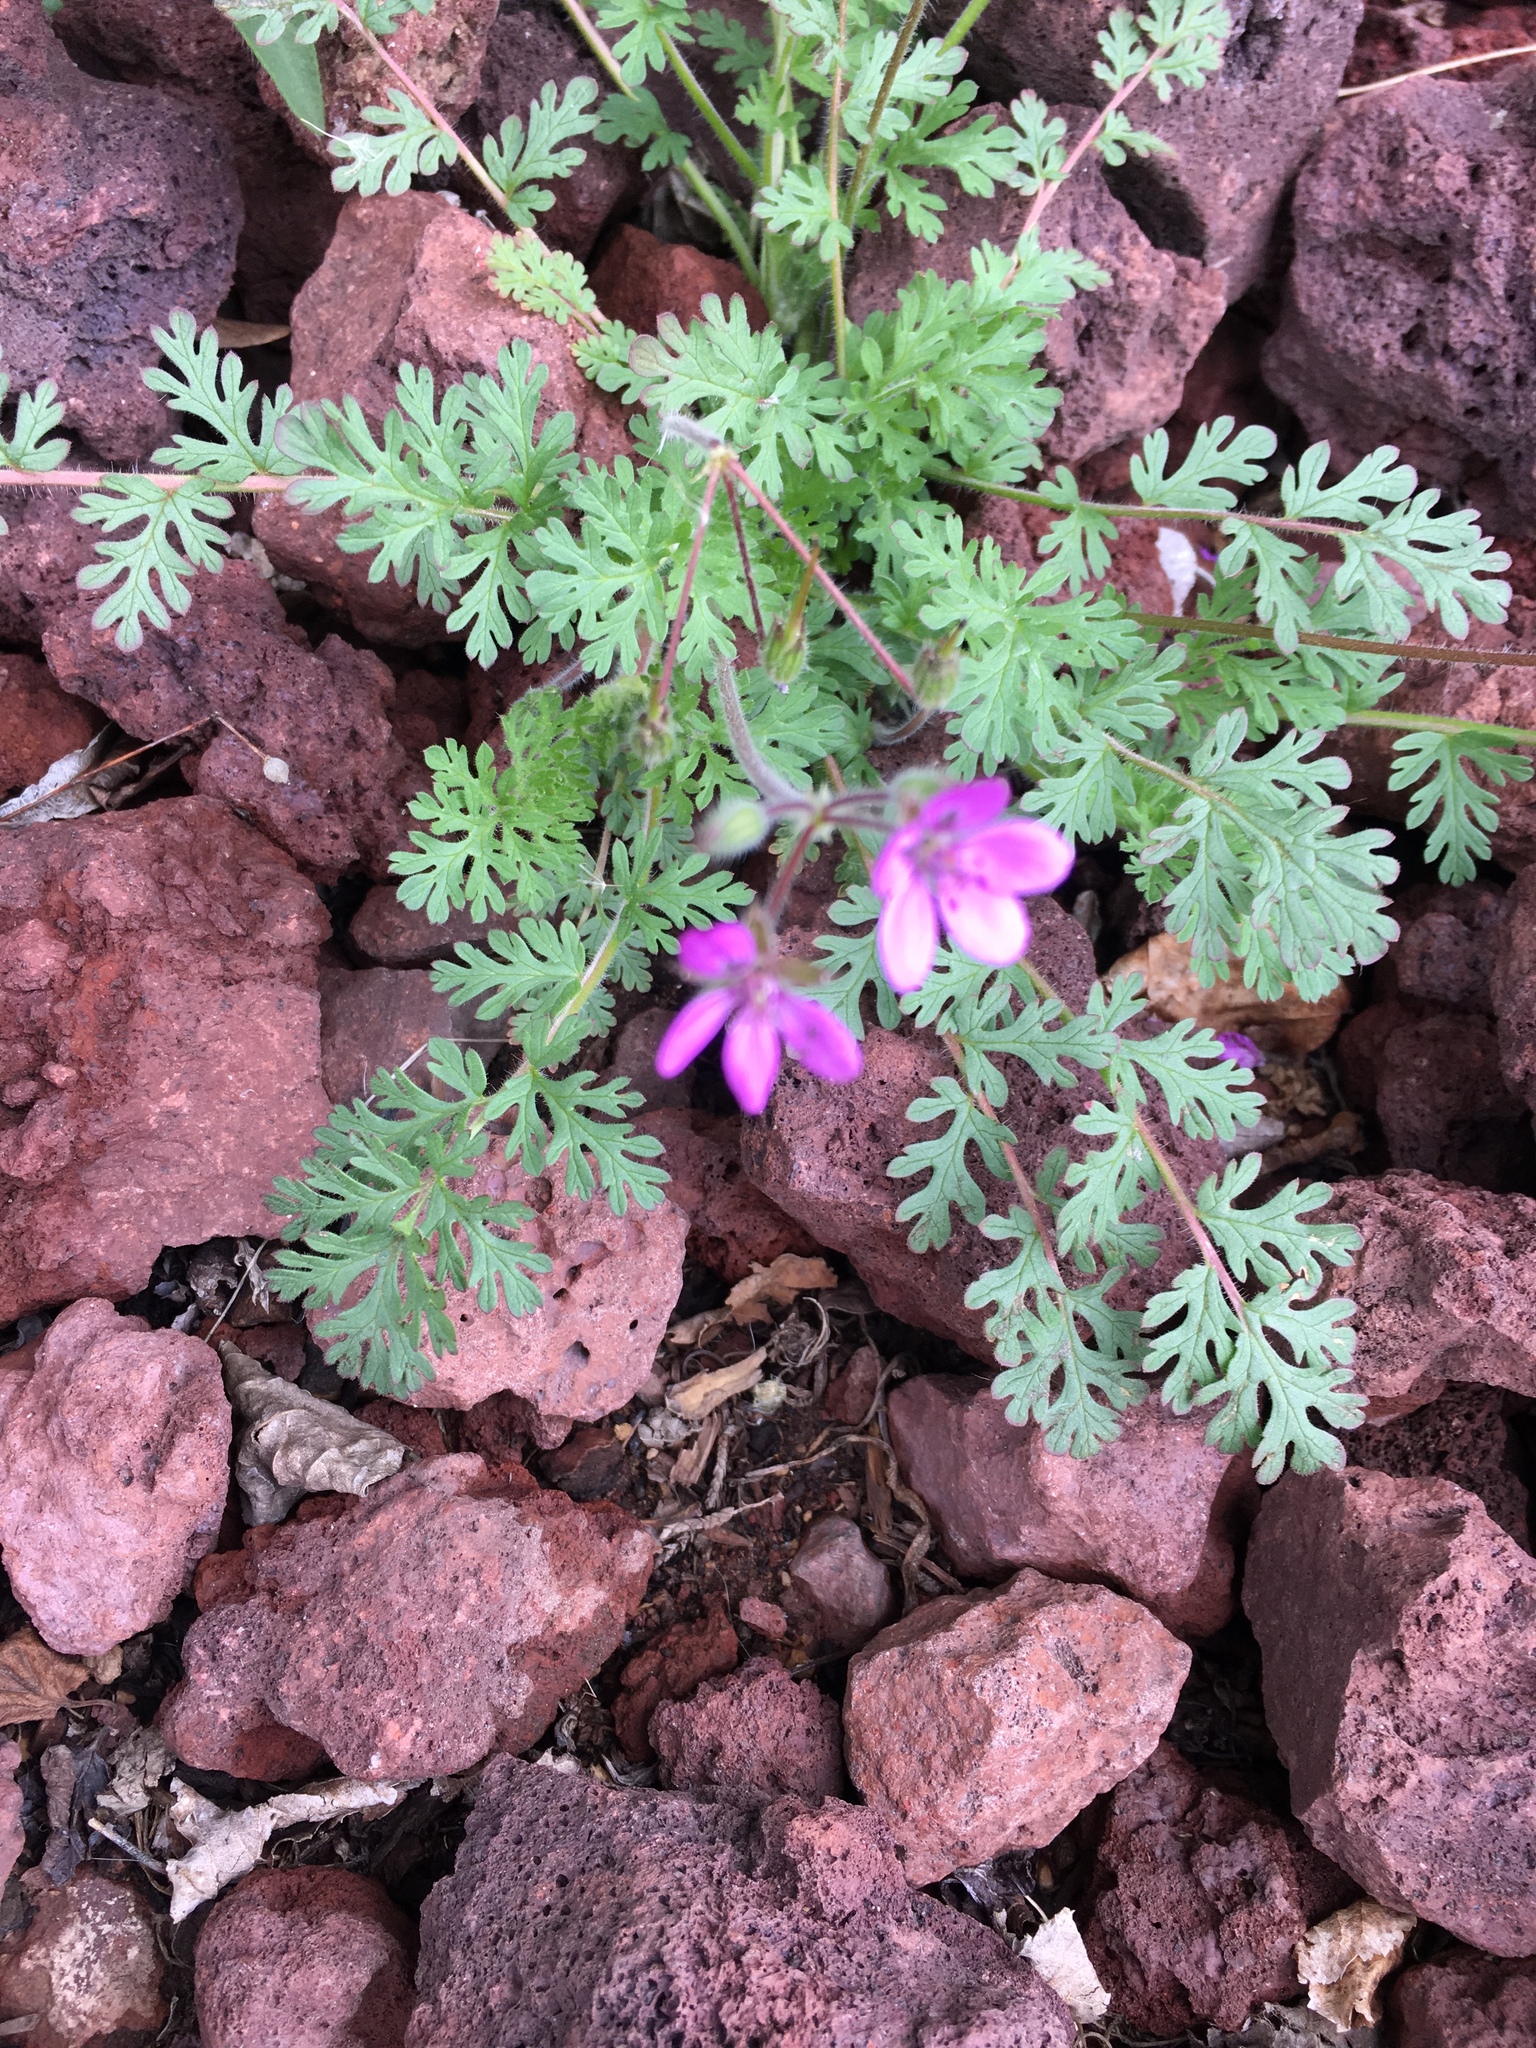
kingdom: Plantae
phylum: Tracheophyta
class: Magnoliopsida
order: Geraniales
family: Geraniaceae
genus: Erodium
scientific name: Erodium cicutarium
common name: Common stork's-bill
